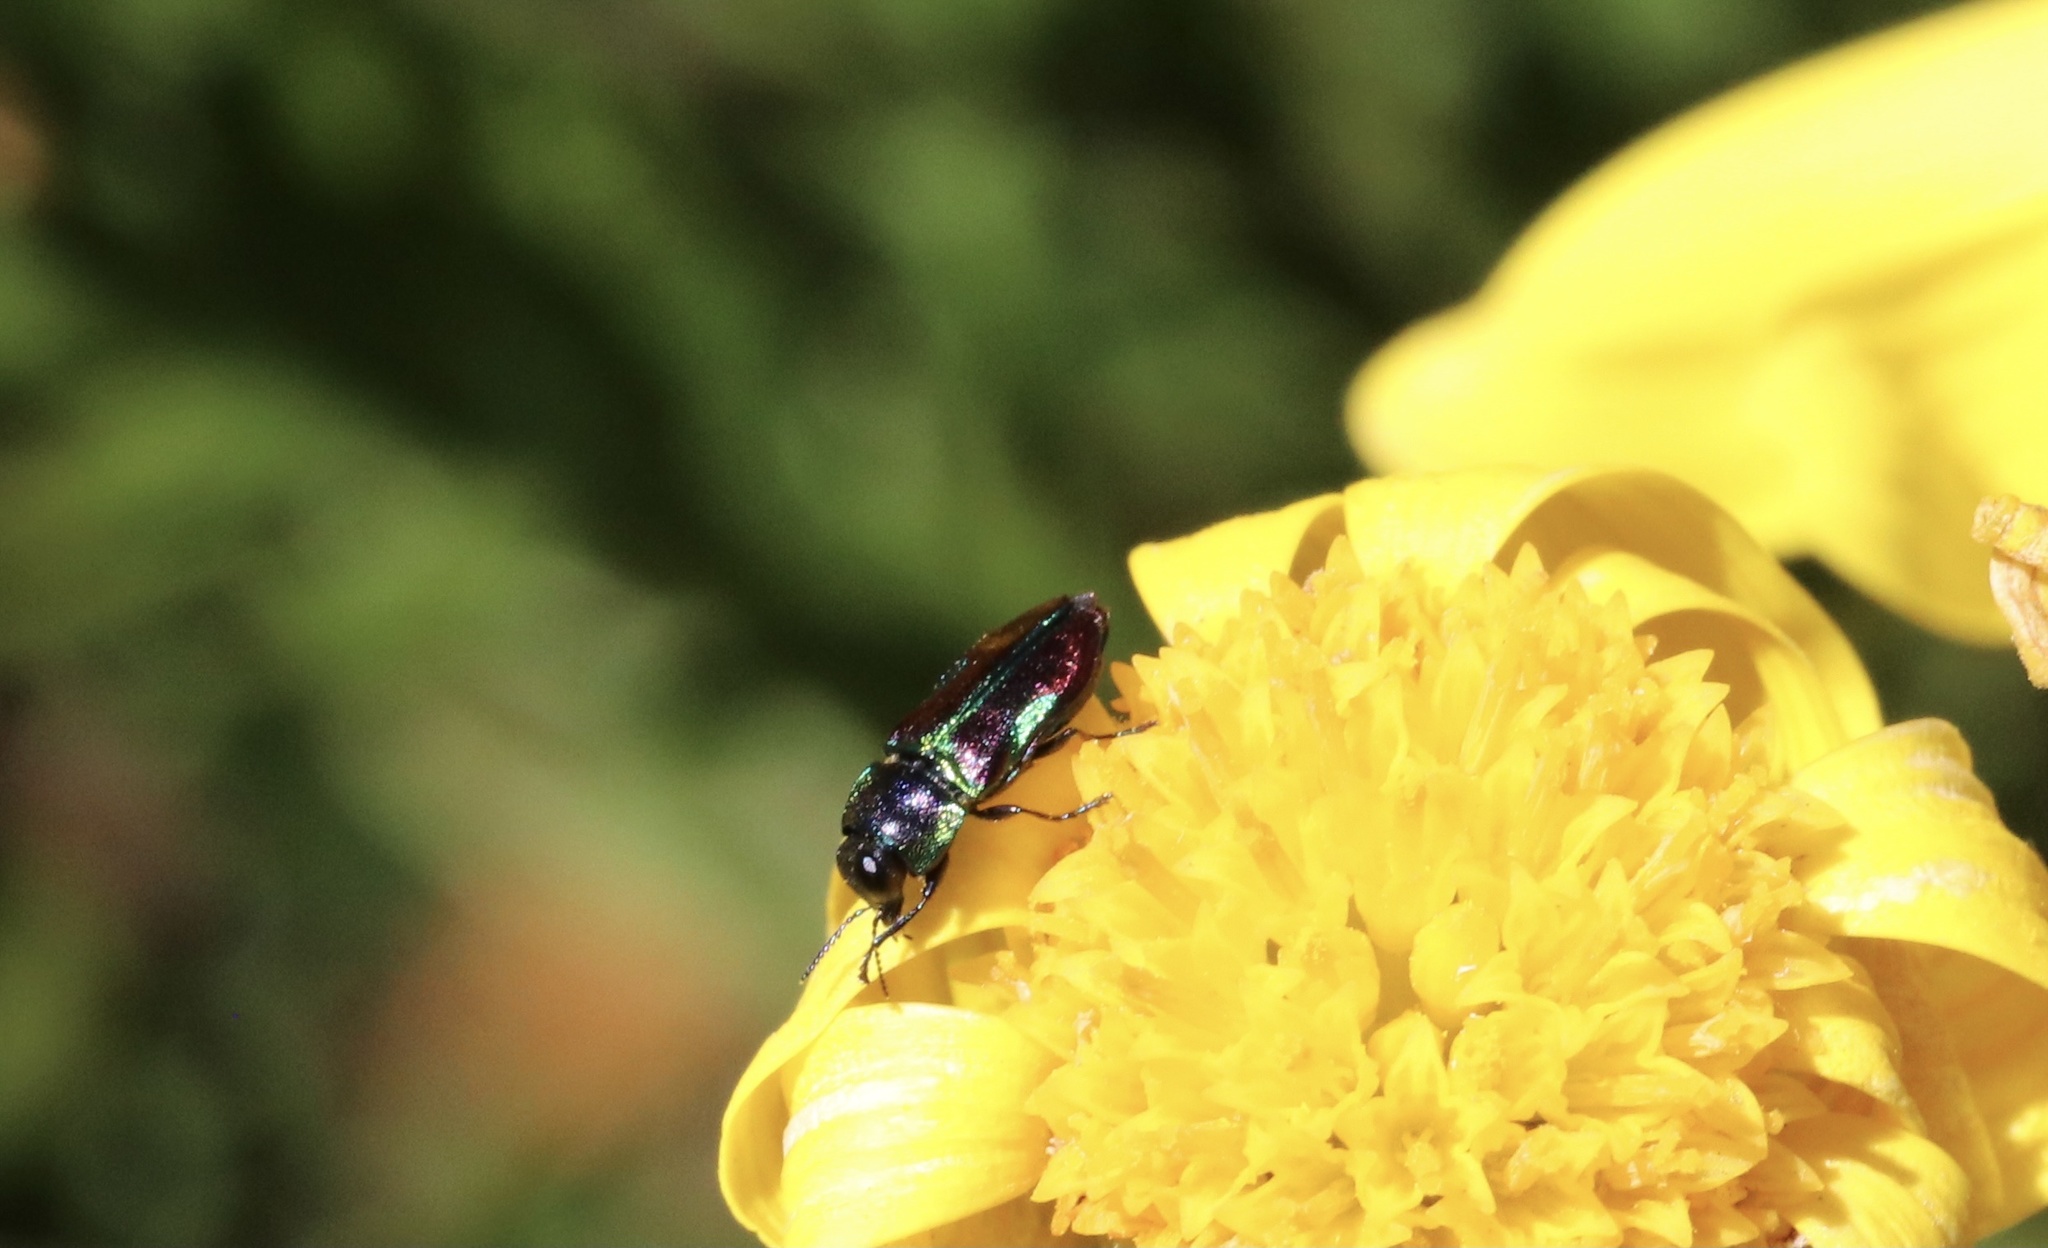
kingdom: Animalia
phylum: Arthropoda
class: Insecta
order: Coleoptera
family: Buprestidae
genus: Bilyaxia
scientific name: Bilyaxia concinna
